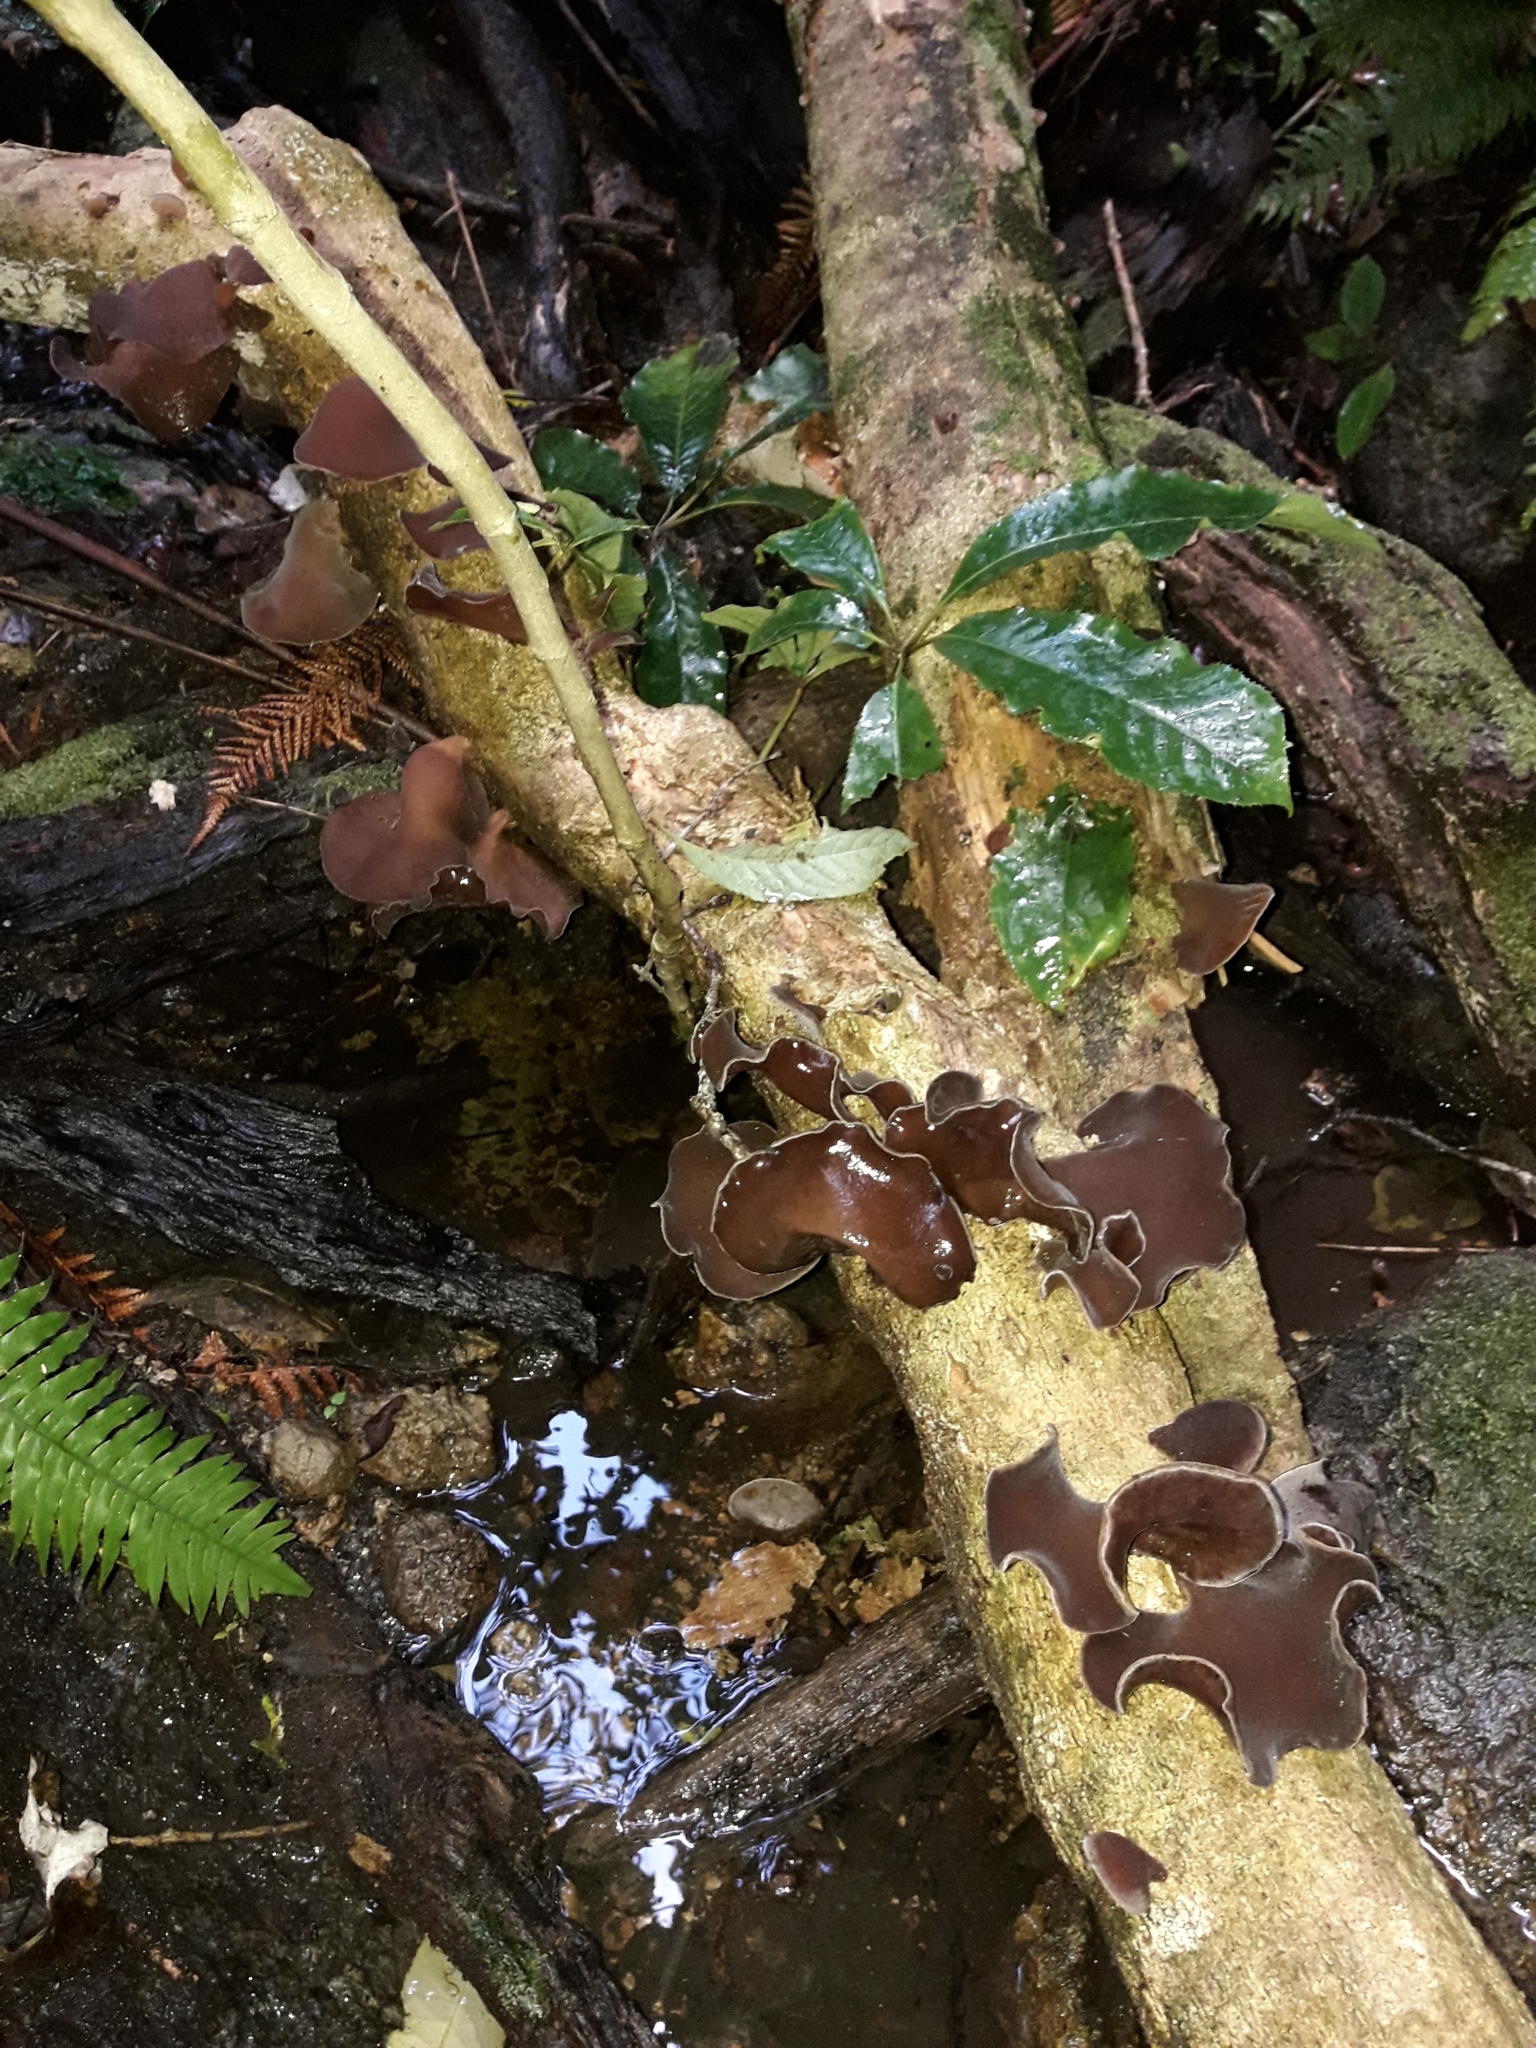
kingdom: Fungi
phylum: Basidiomycota
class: Agaricomycetes
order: Auriculariales
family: Auriculariaceae
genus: Auricularia
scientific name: Auricularia cornea
